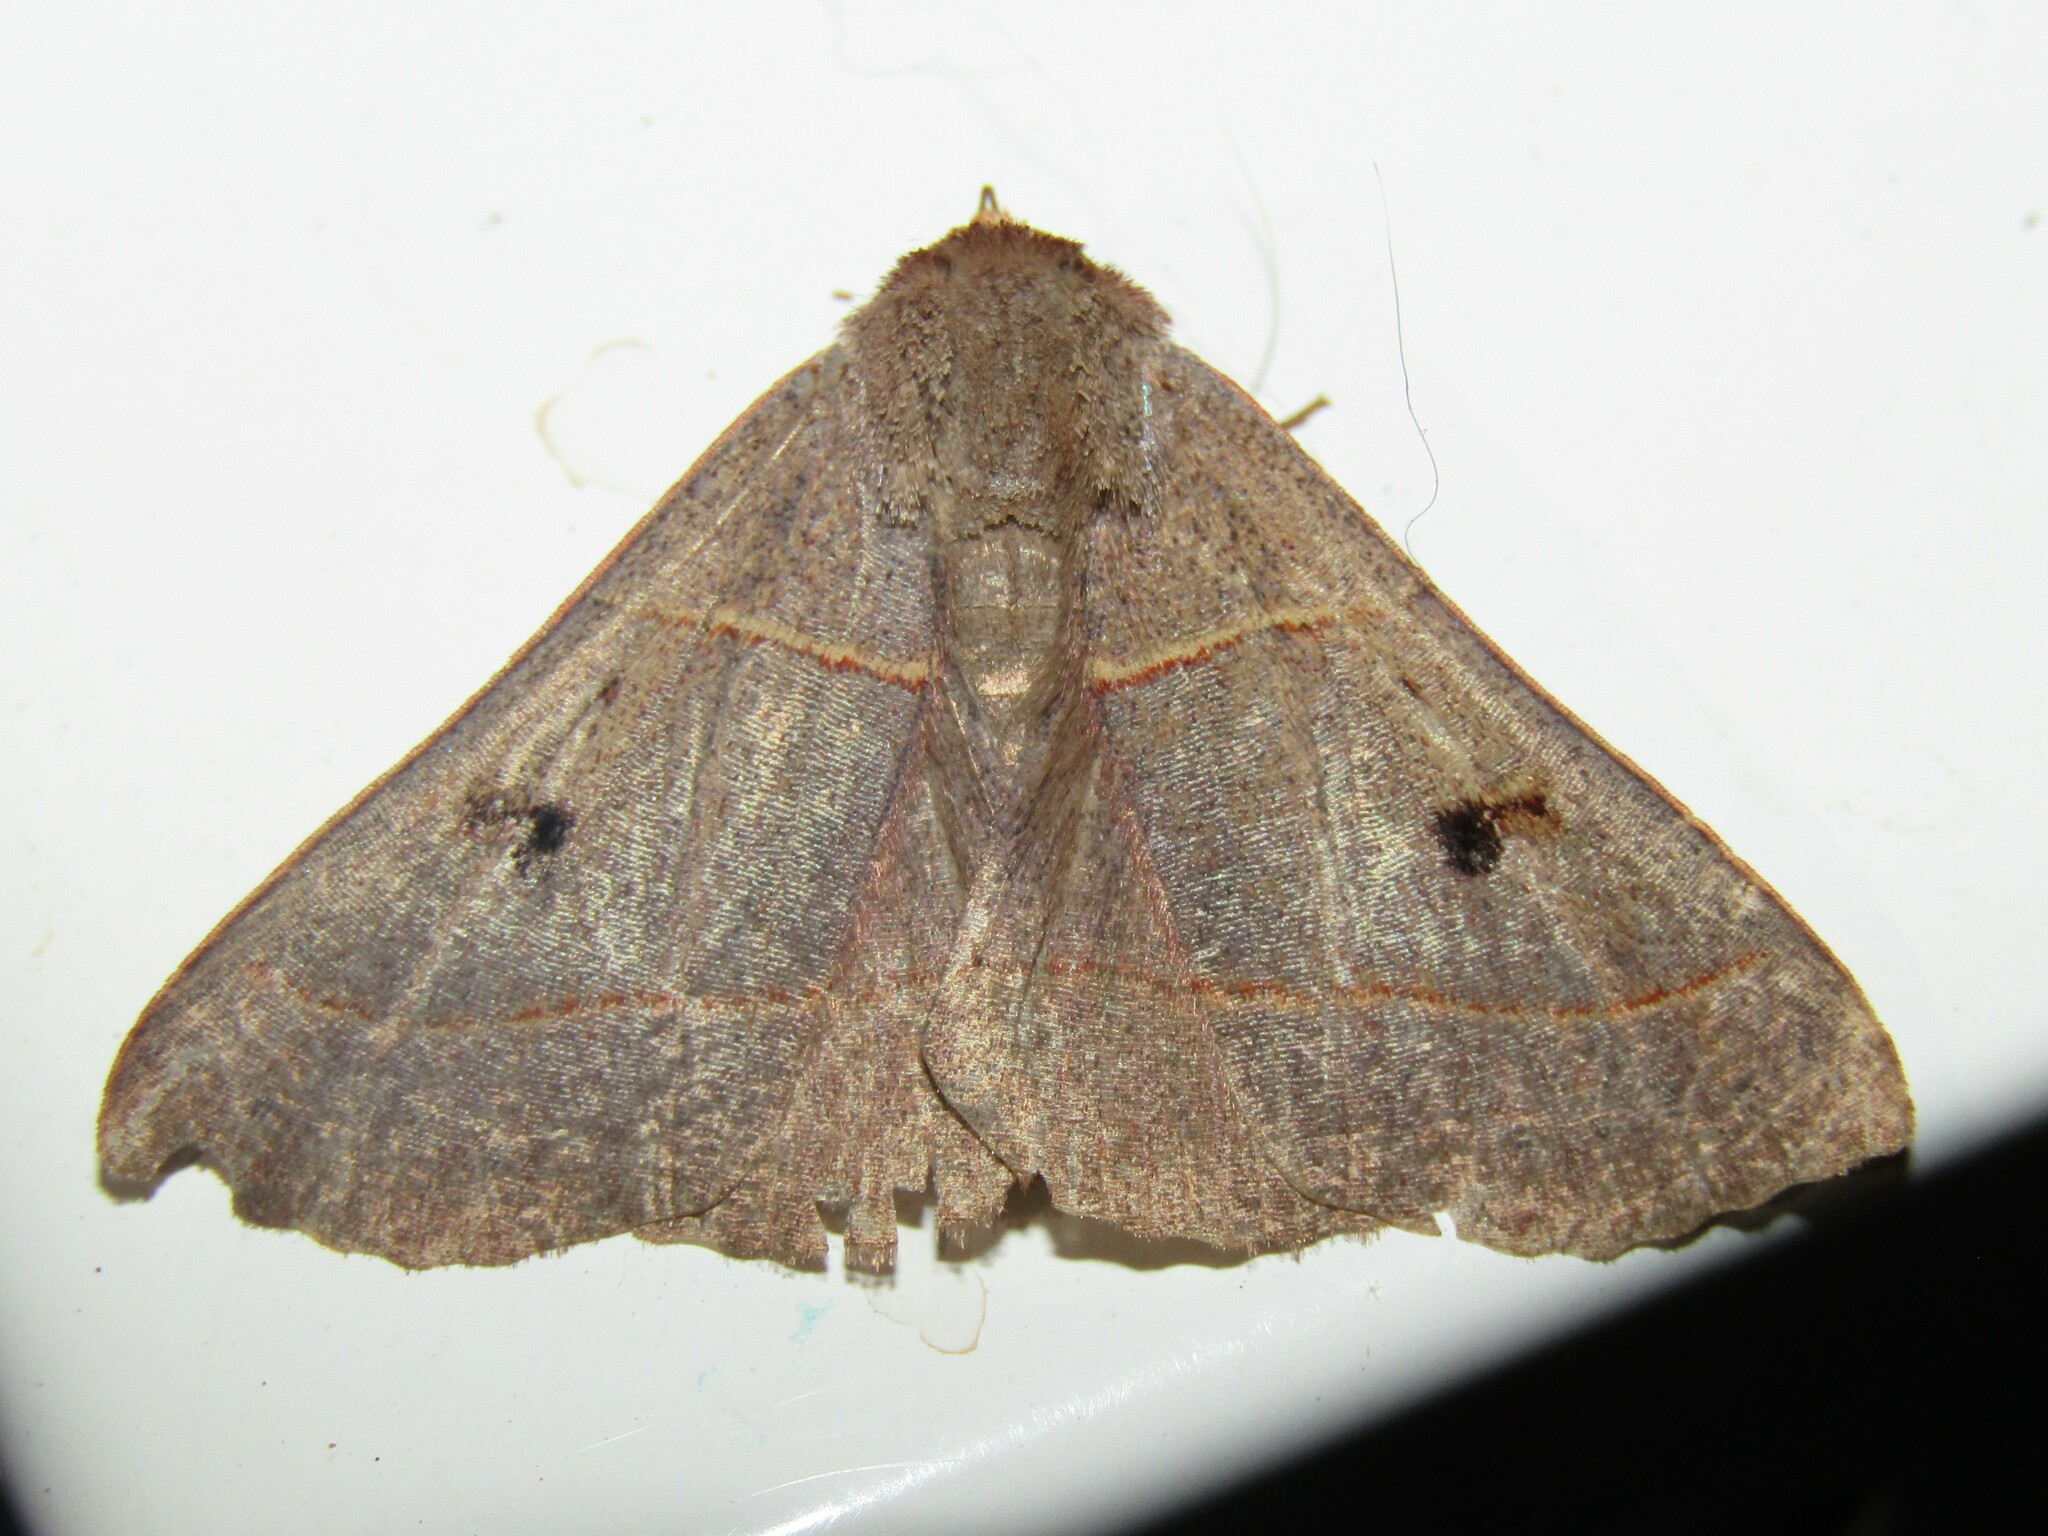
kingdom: Animalia
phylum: Arthropoda
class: Insecta
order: Lepidoptera
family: Erebidae
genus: Panopoda
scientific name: Panopoda rufimargo
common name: Red-lined panopoda moth
